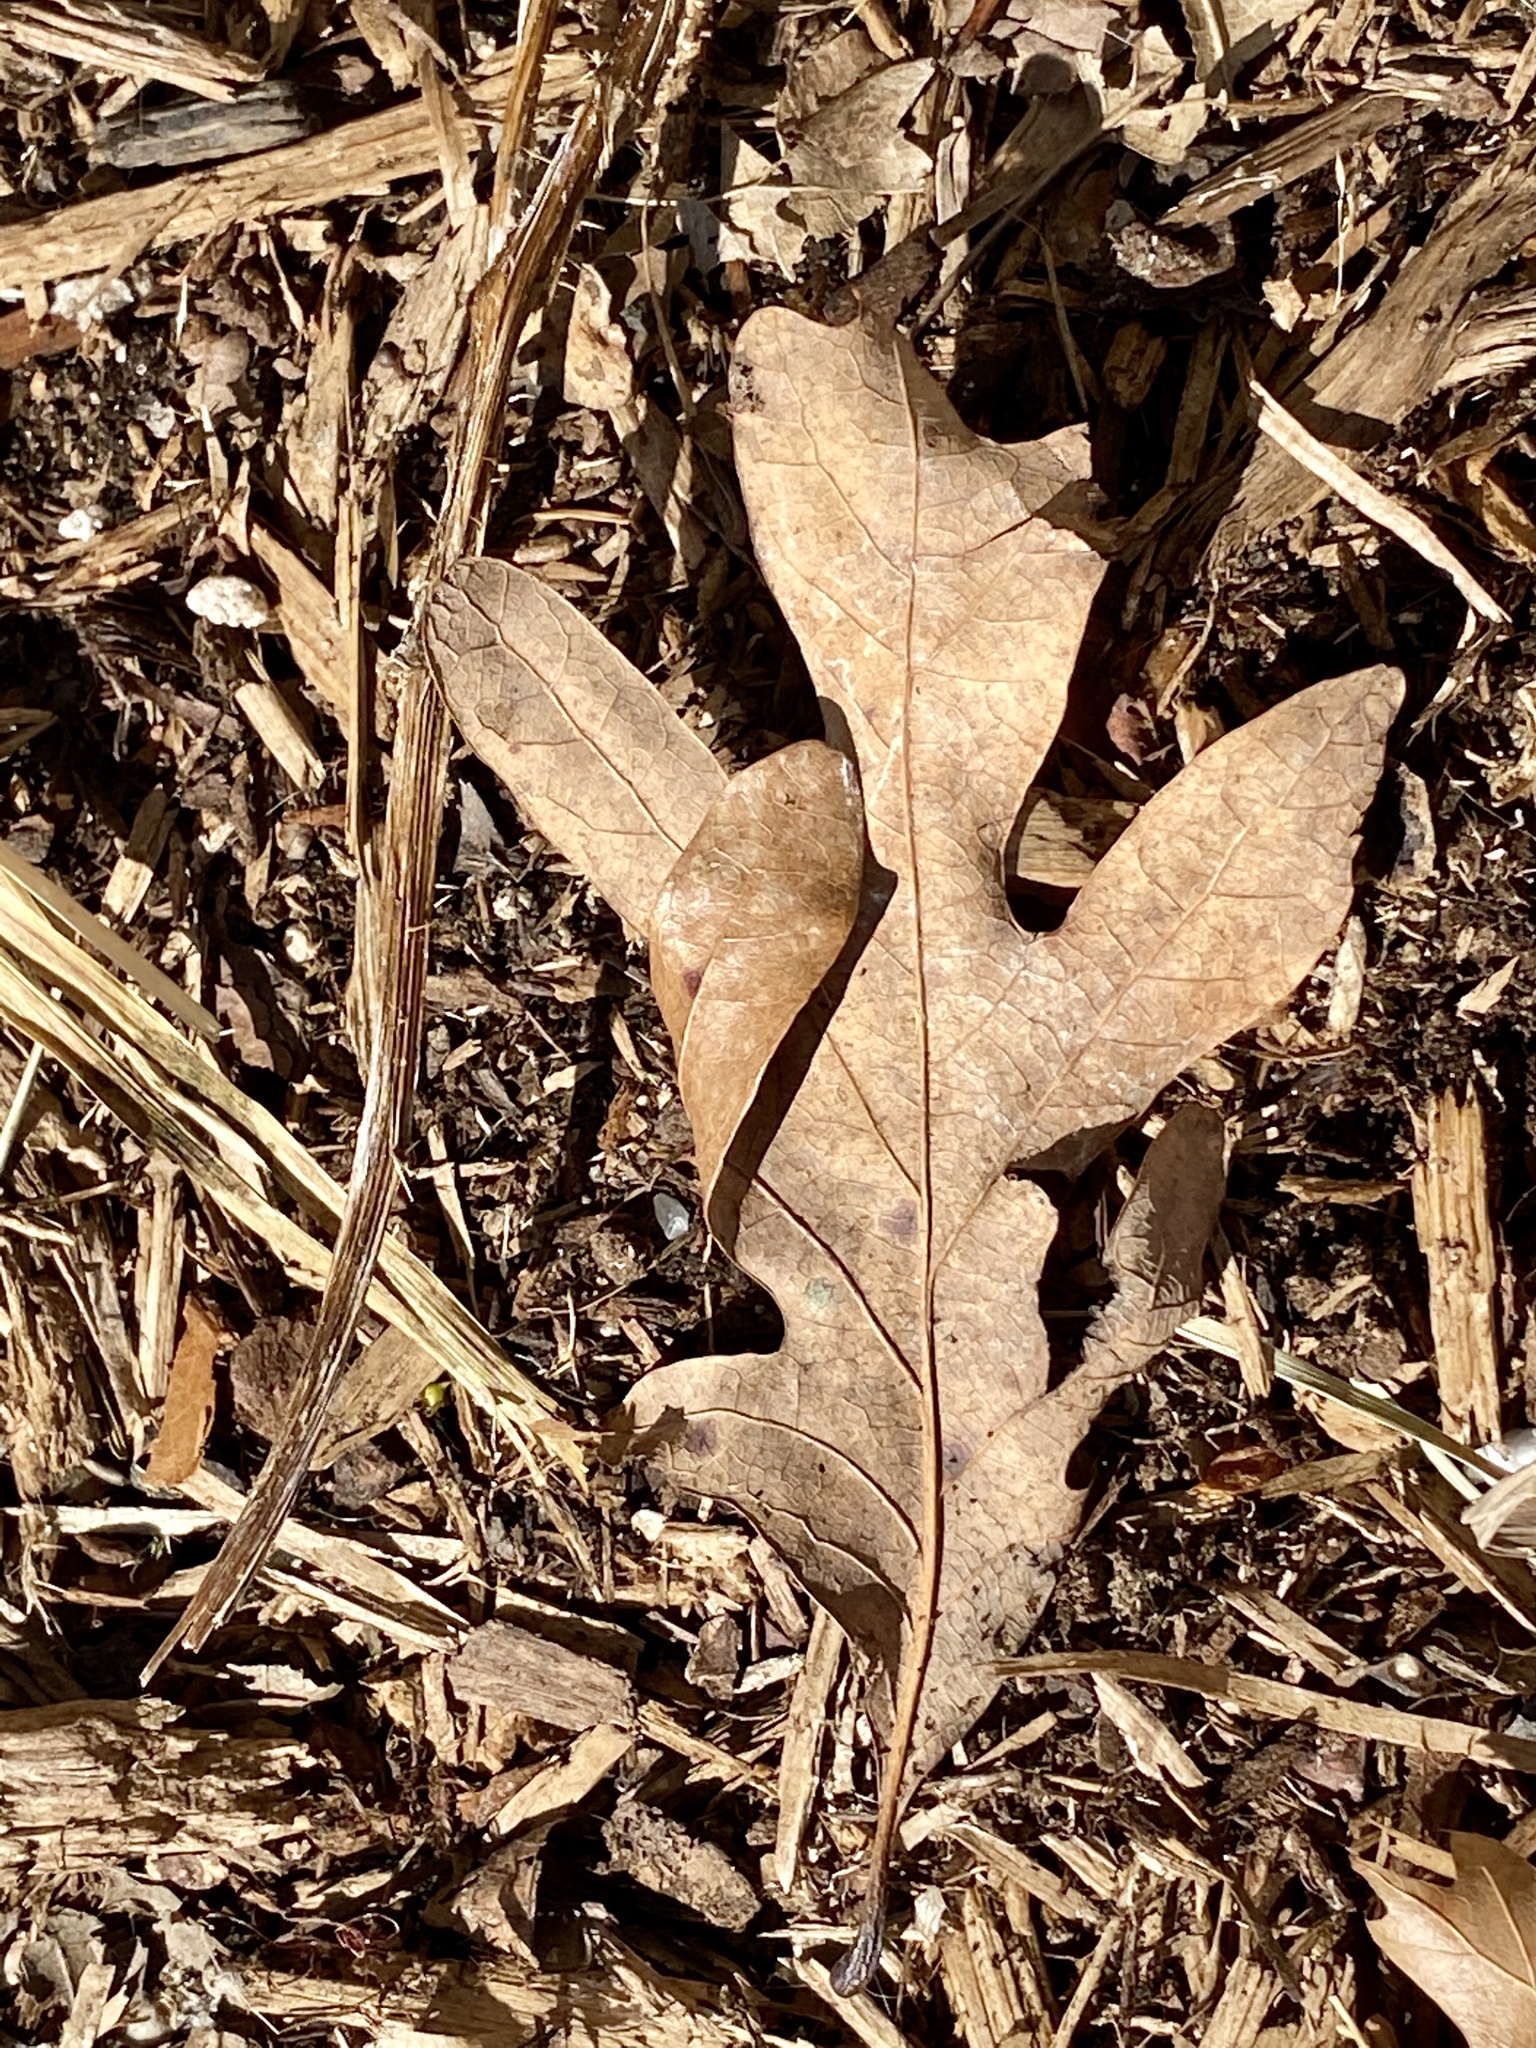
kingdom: Plantae
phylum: Tracheophyta
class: Magnoliopsida
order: Fagales
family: Fagaceae
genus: Quercus
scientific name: Quercus alba
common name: White oak
